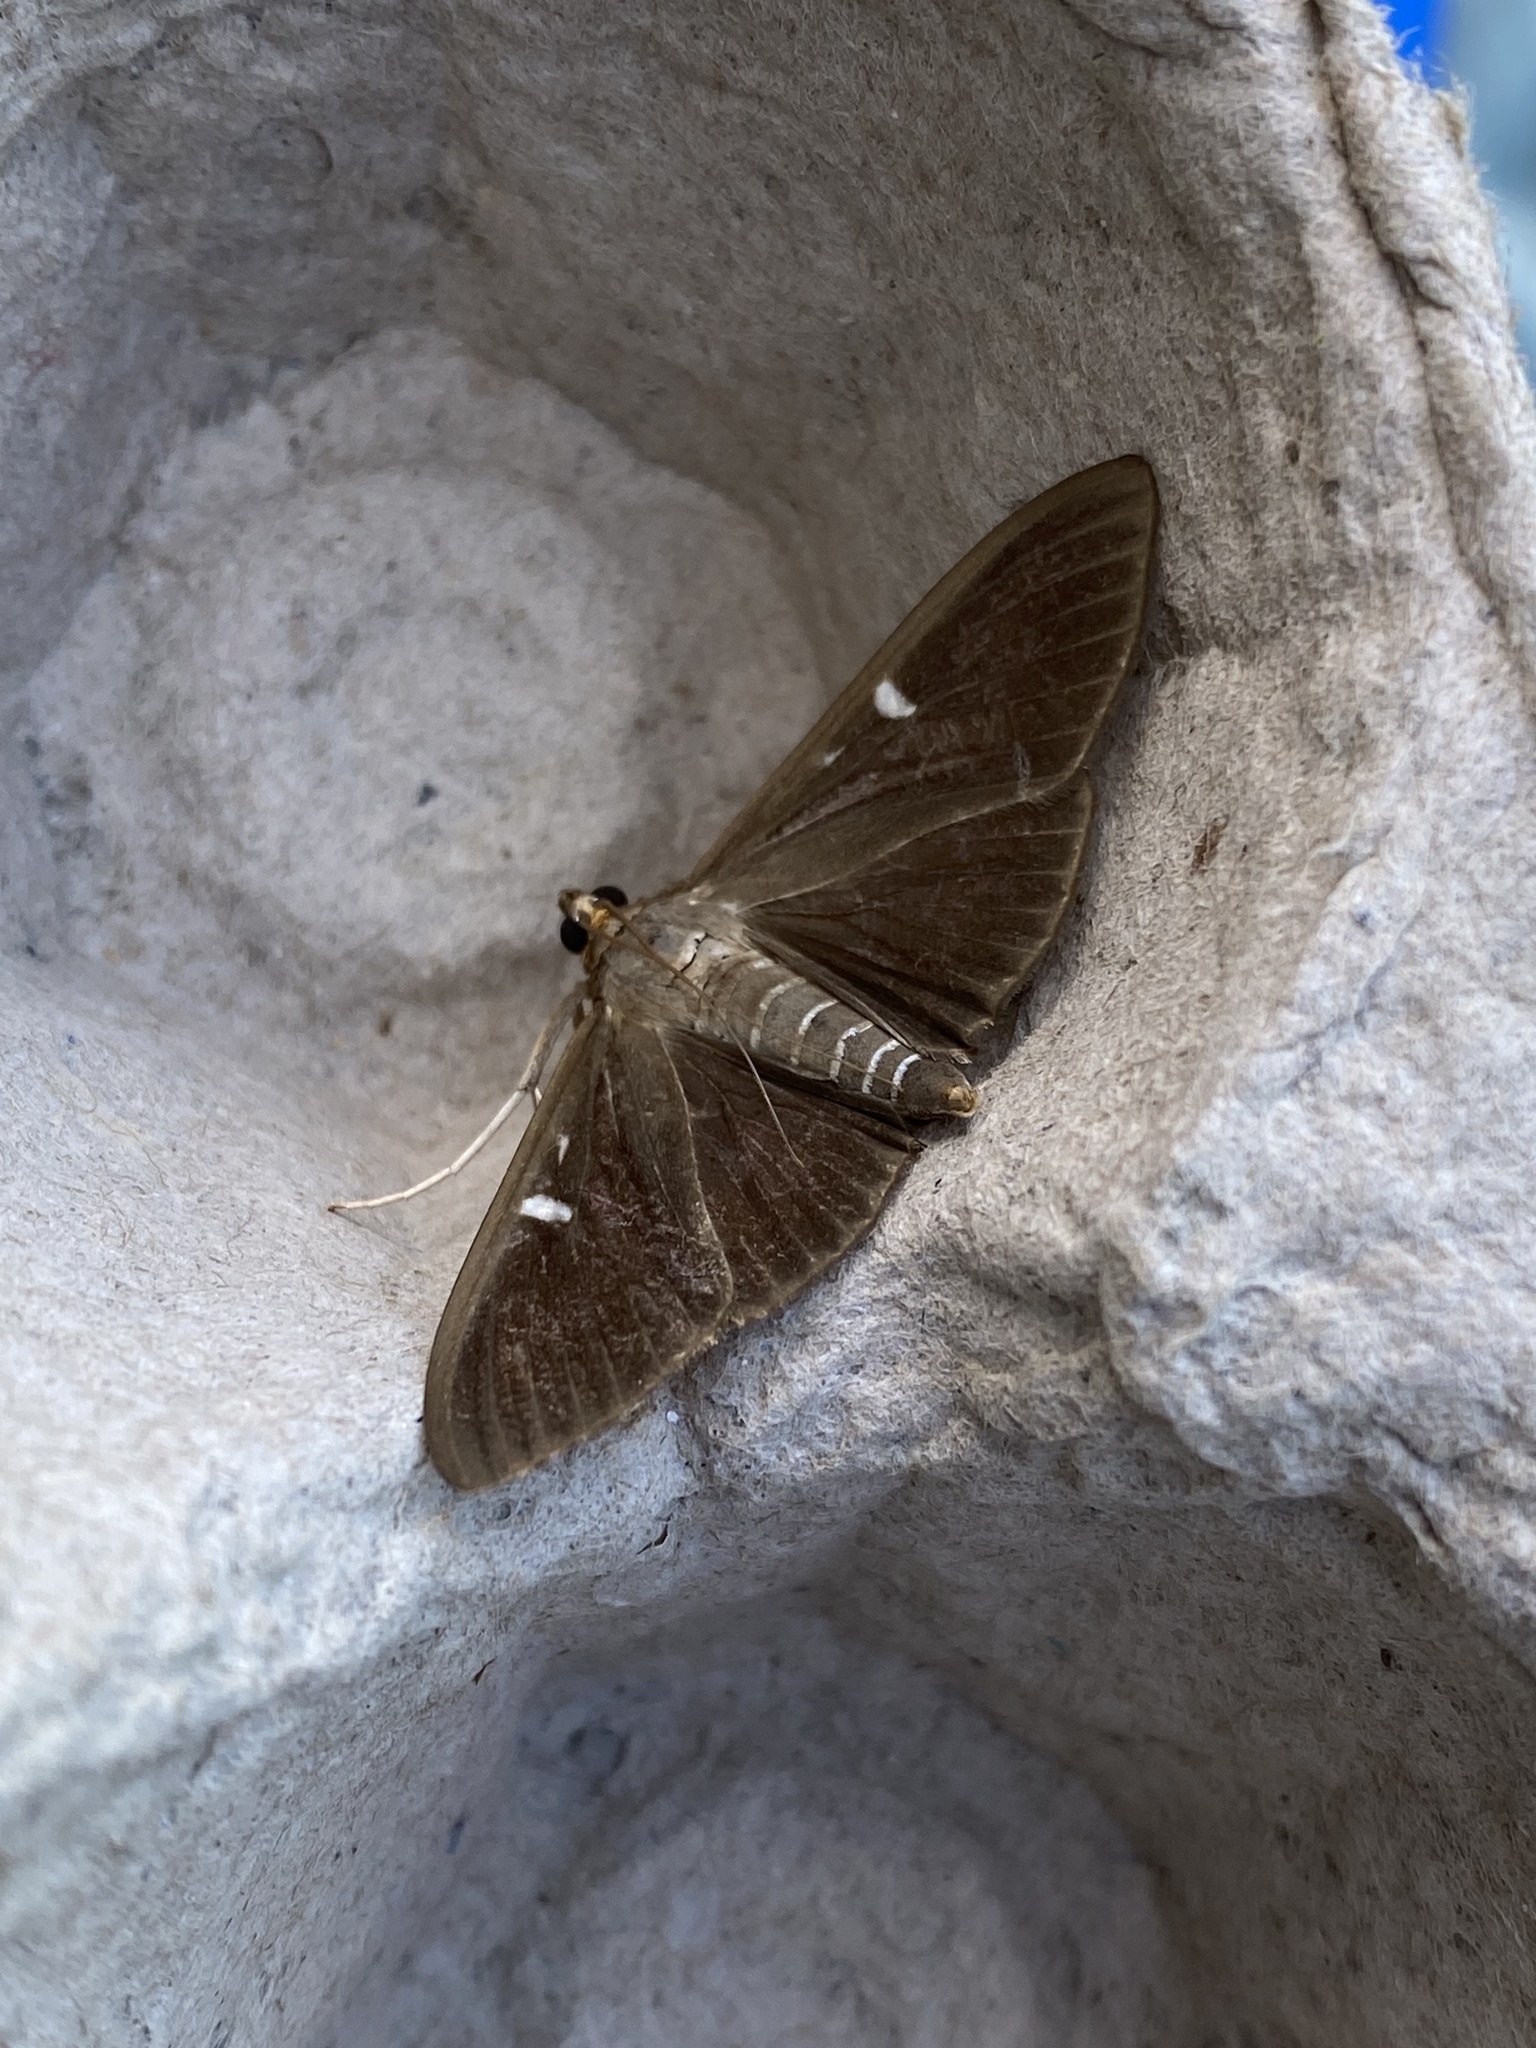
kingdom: Animalia
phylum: Arthropoda
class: Insecta
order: Lepidoptera
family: Crambidae
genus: Cydalima
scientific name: Cydalima perspectalis
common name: Box tree moth
